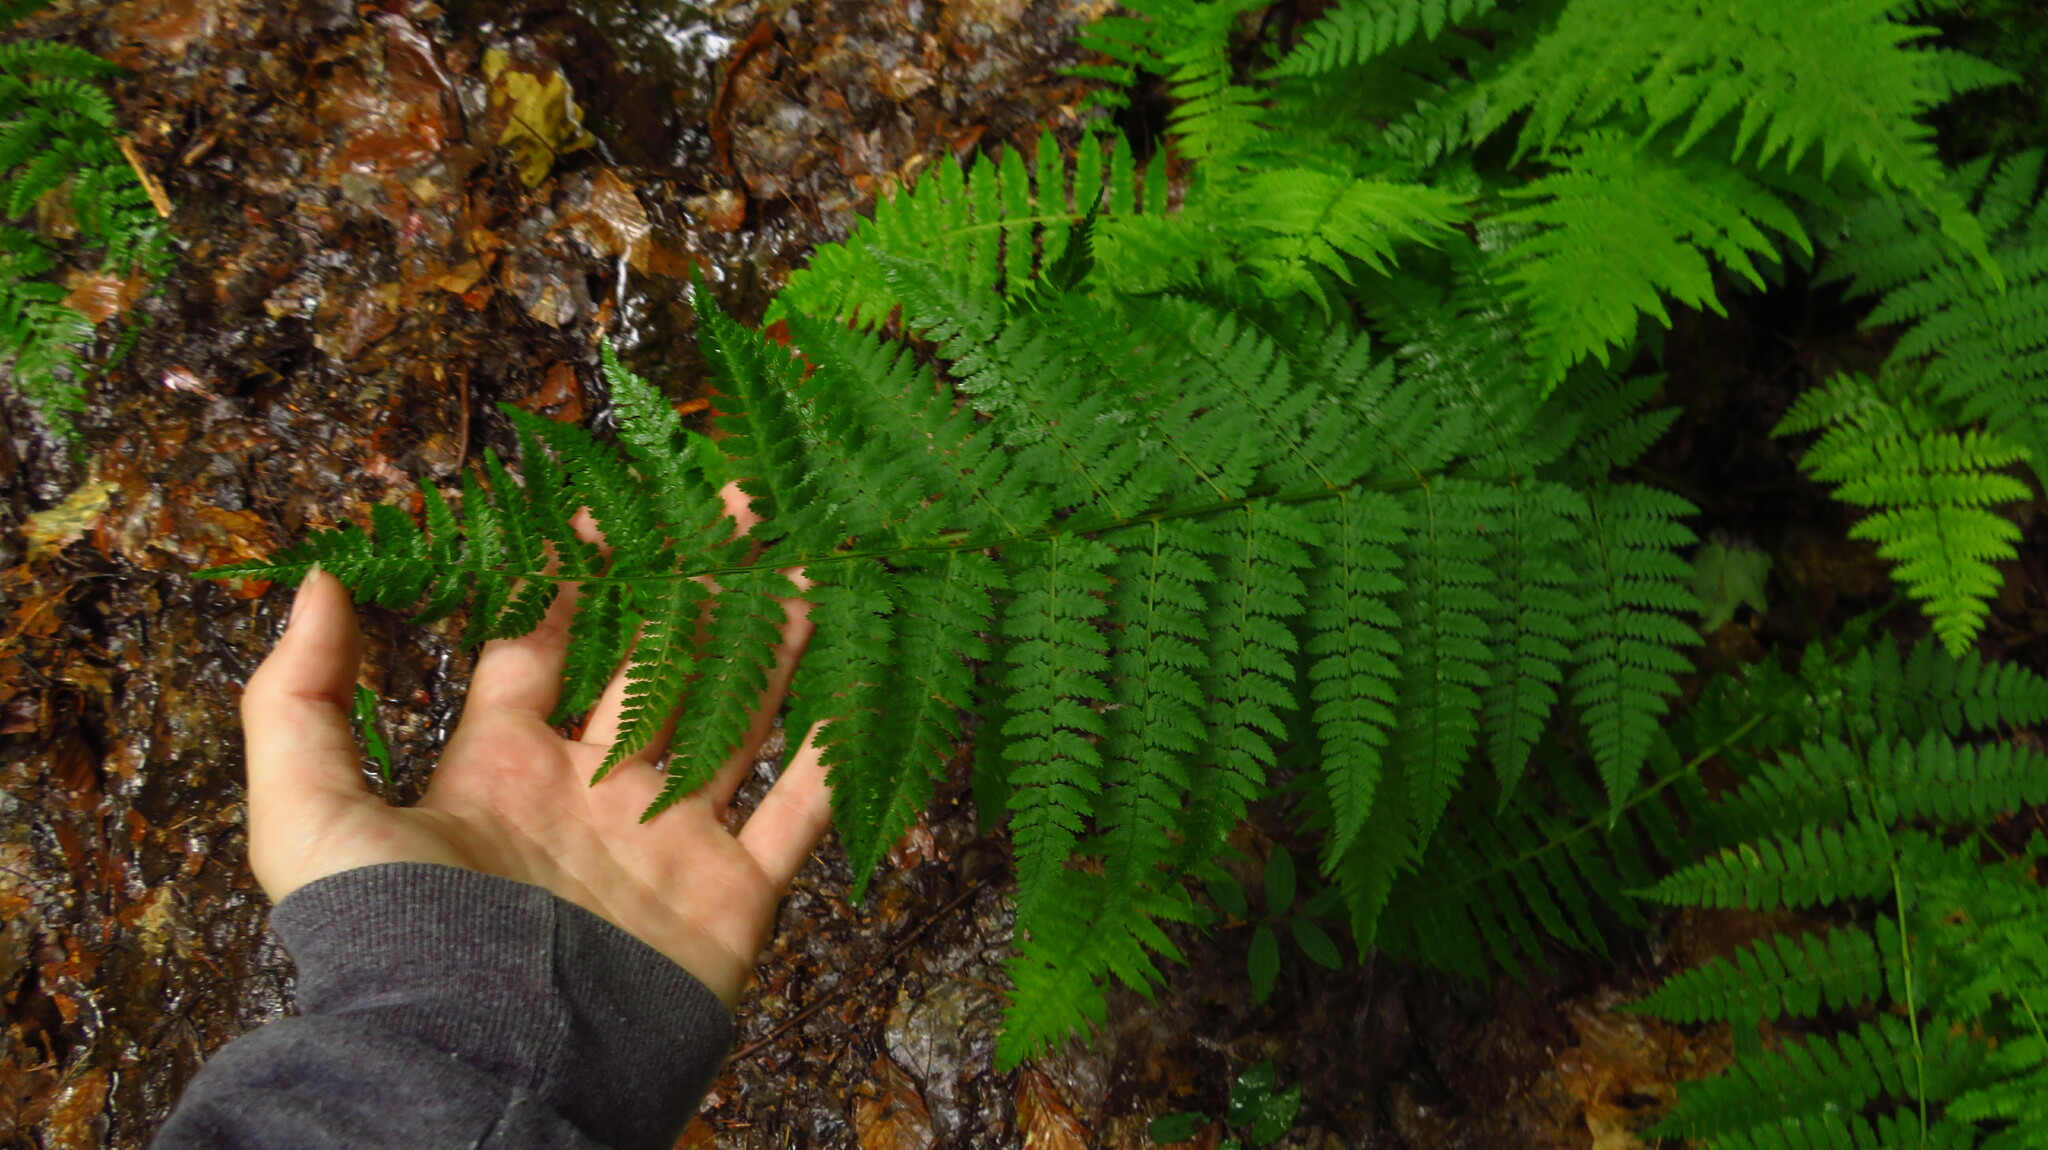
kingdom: Plantae
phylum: Tracheophyta
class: Polypodiopsida
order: Polypodiales
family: Dryopteridaceae
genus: Dryopteris
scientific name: Dryopteris intermedia
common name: Evergreen wood fern
